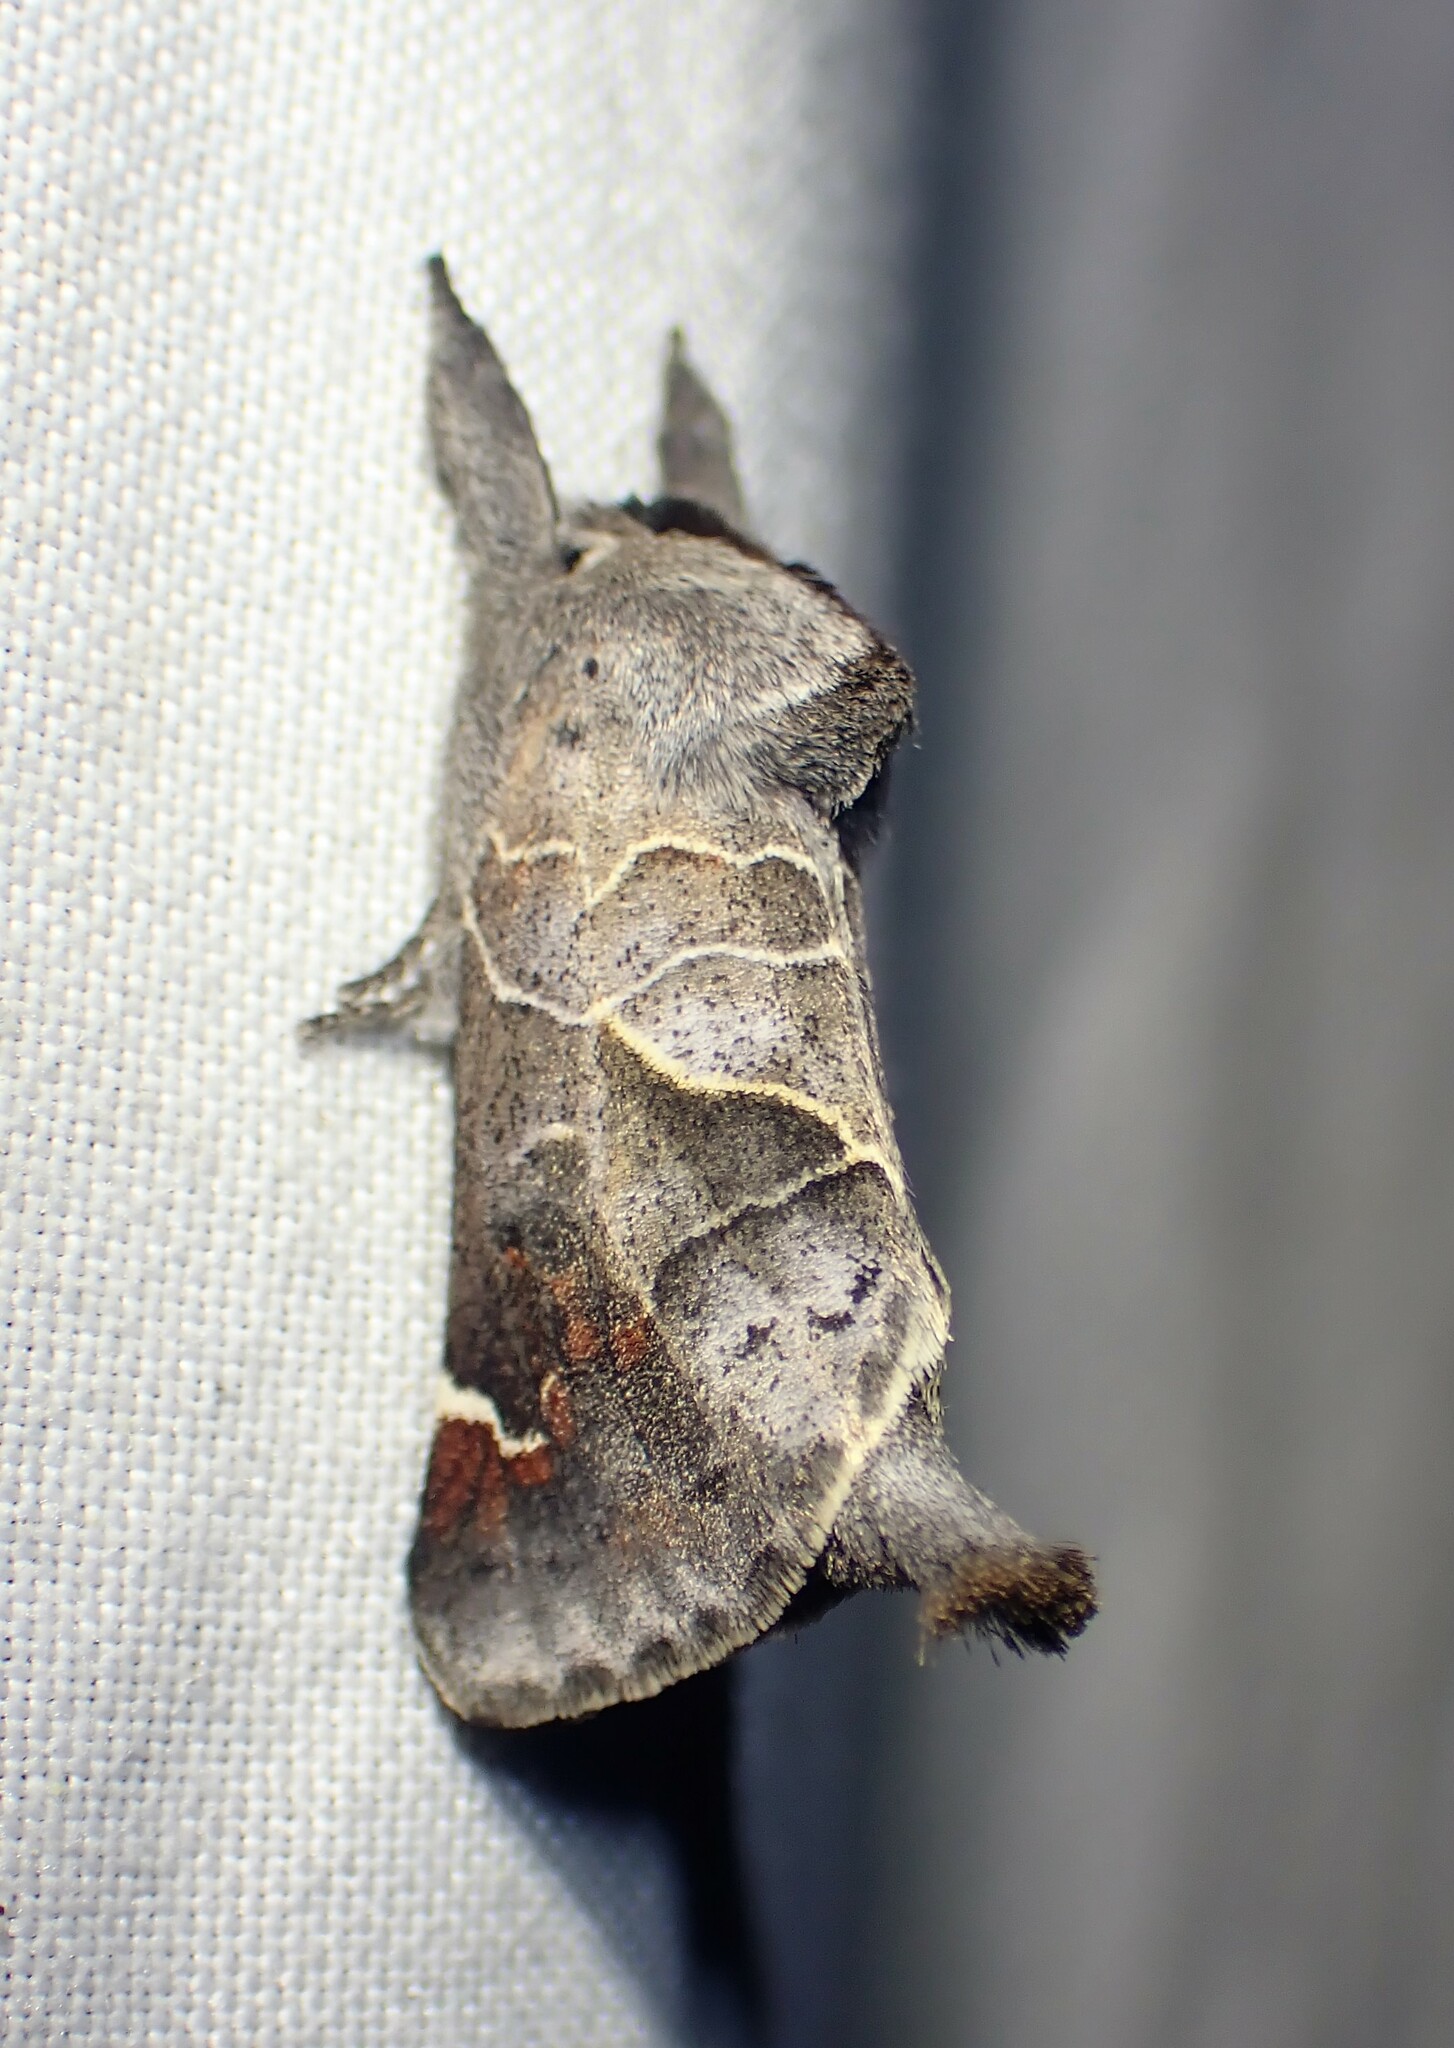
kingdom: Animalia
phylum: Arthropoda
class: Insecta
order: Lepidoptera
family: Notodontidae
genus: Clostera
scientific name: Clostera apicalis
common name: Apical prominent
